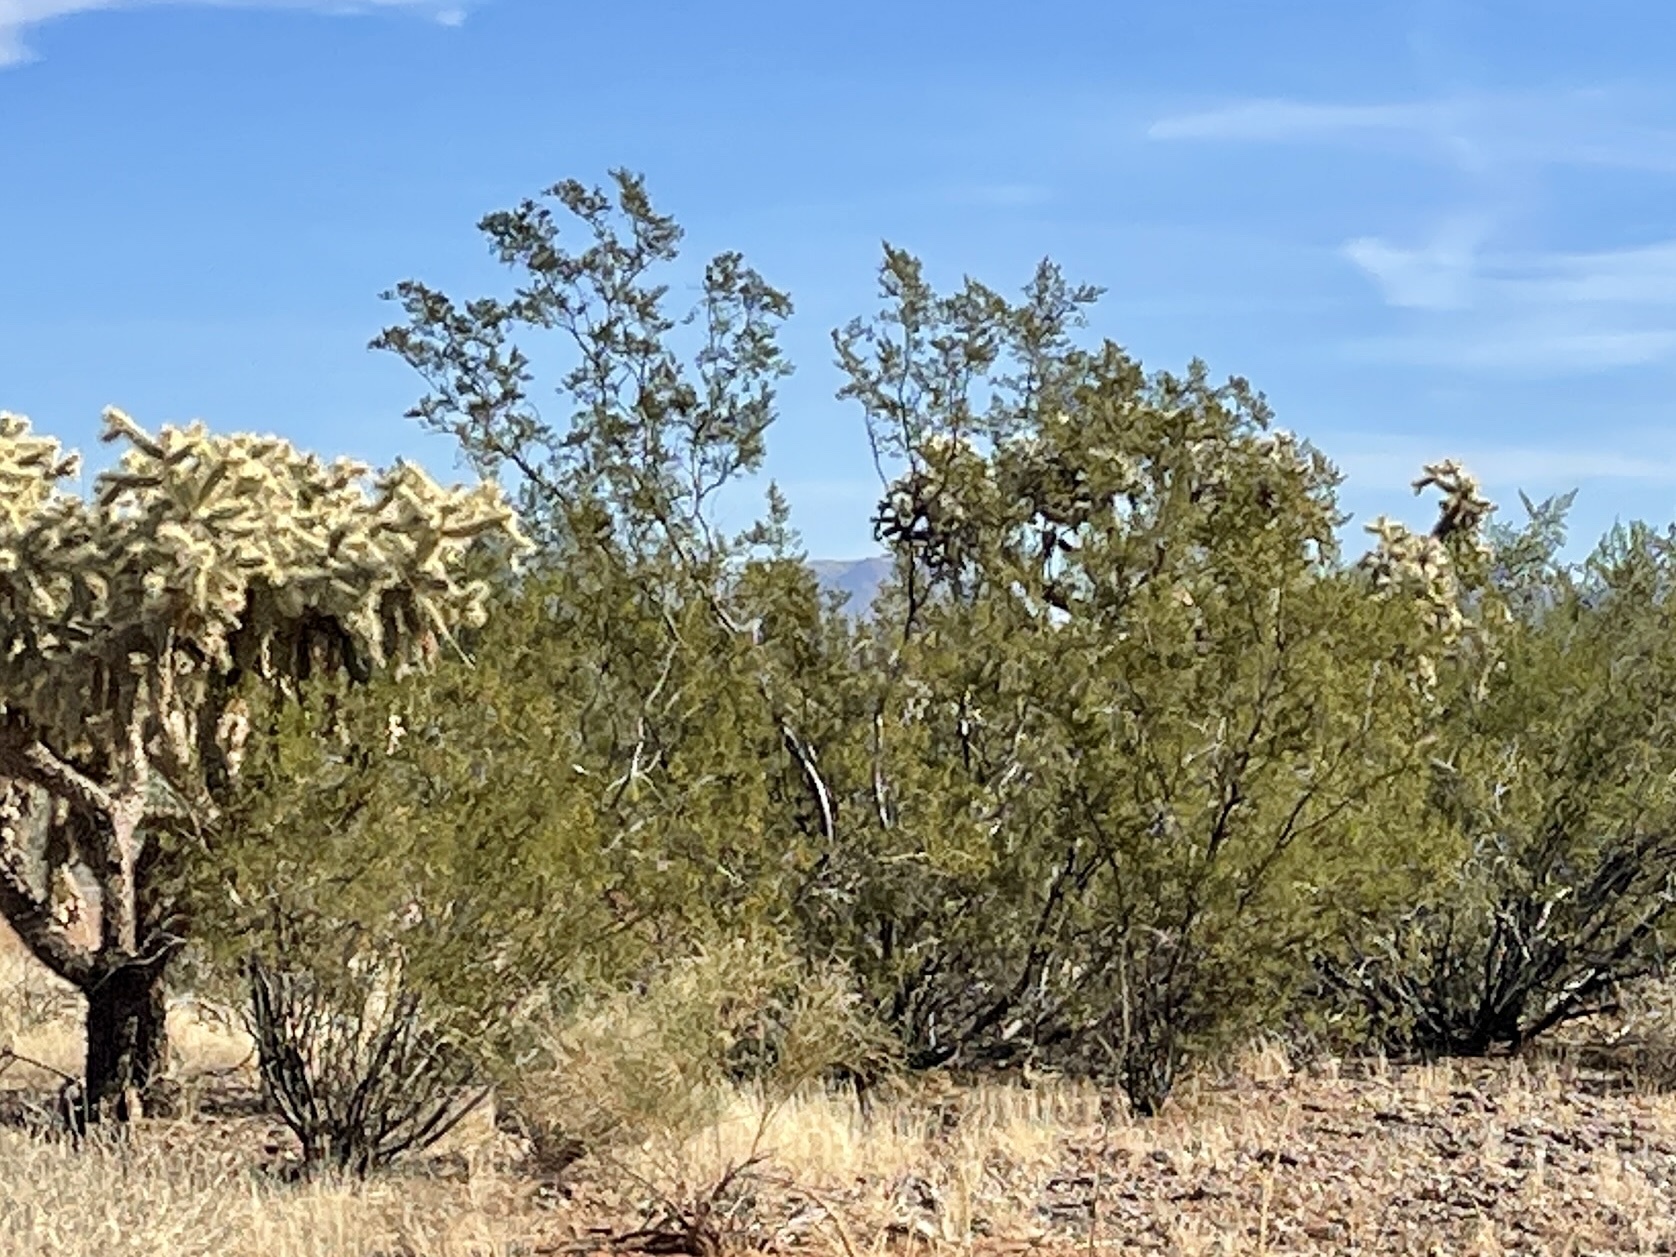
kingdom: Plantae
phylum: Tracheophyta
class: Magnoliopsida
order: Zygophyllales
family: Zygophyllaceae
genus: Larrea
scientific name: Larrea tridentata
